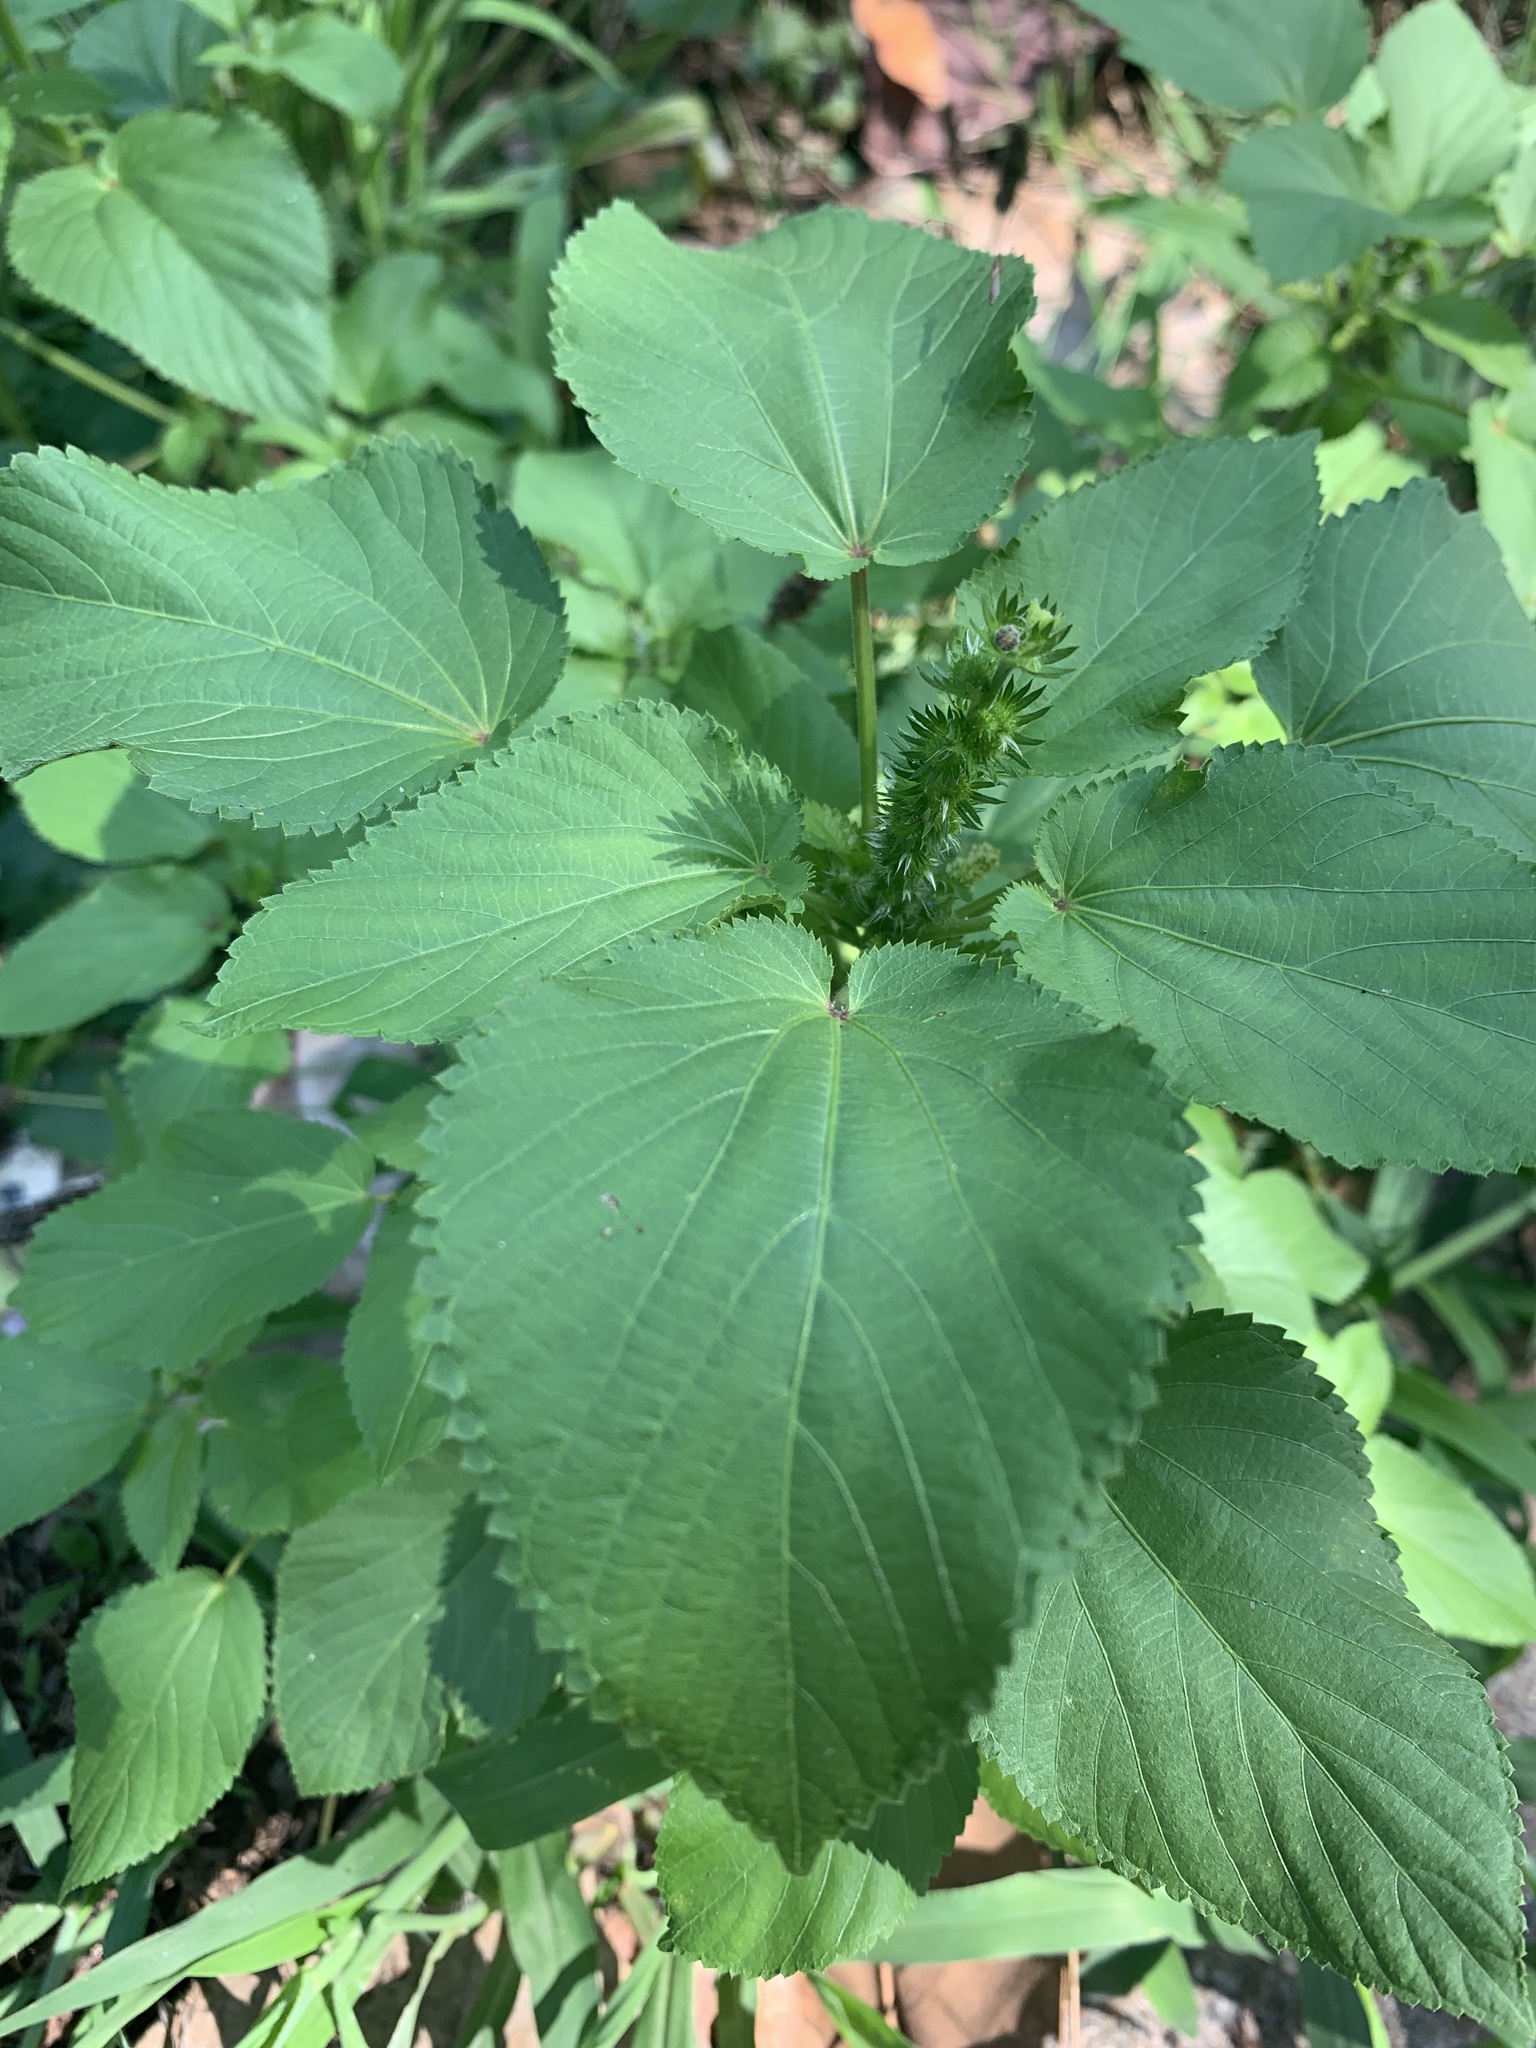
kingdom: Plantae
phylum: Tracheophyta
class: Magnoliopsida
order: Malpighiales
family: Euphorbiaceae
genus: Acalypha
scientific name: Acalypha ostryifolia
